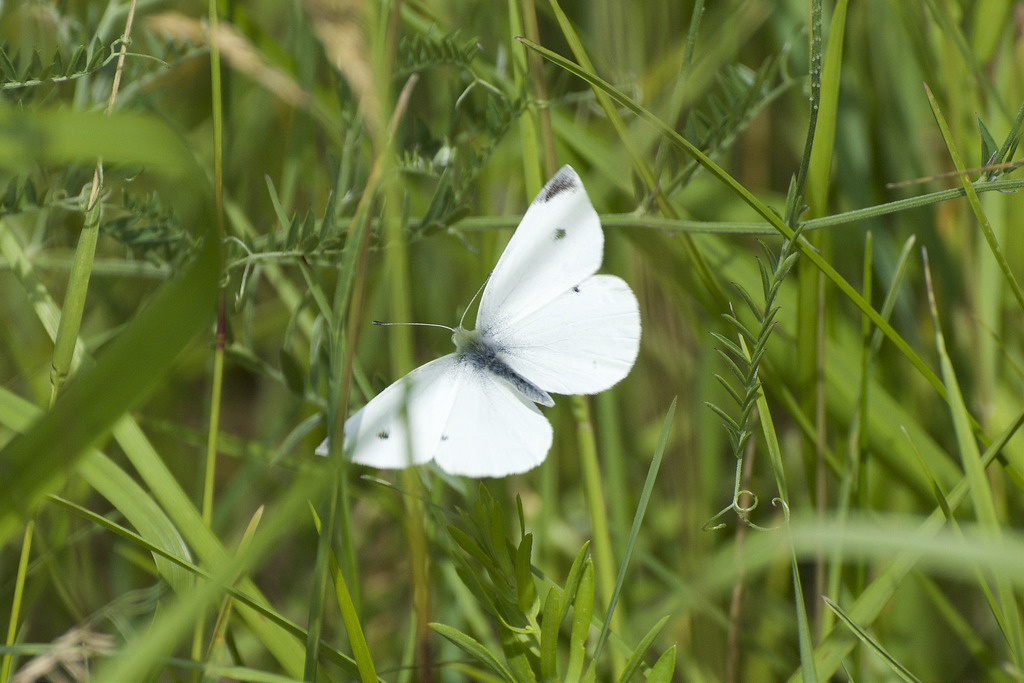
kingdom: Animalia
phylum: Arthropoda
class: Insecta
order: Lepidoptera
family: Pieridae
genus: Pieris
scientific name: Pieris rapae
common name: Small white
